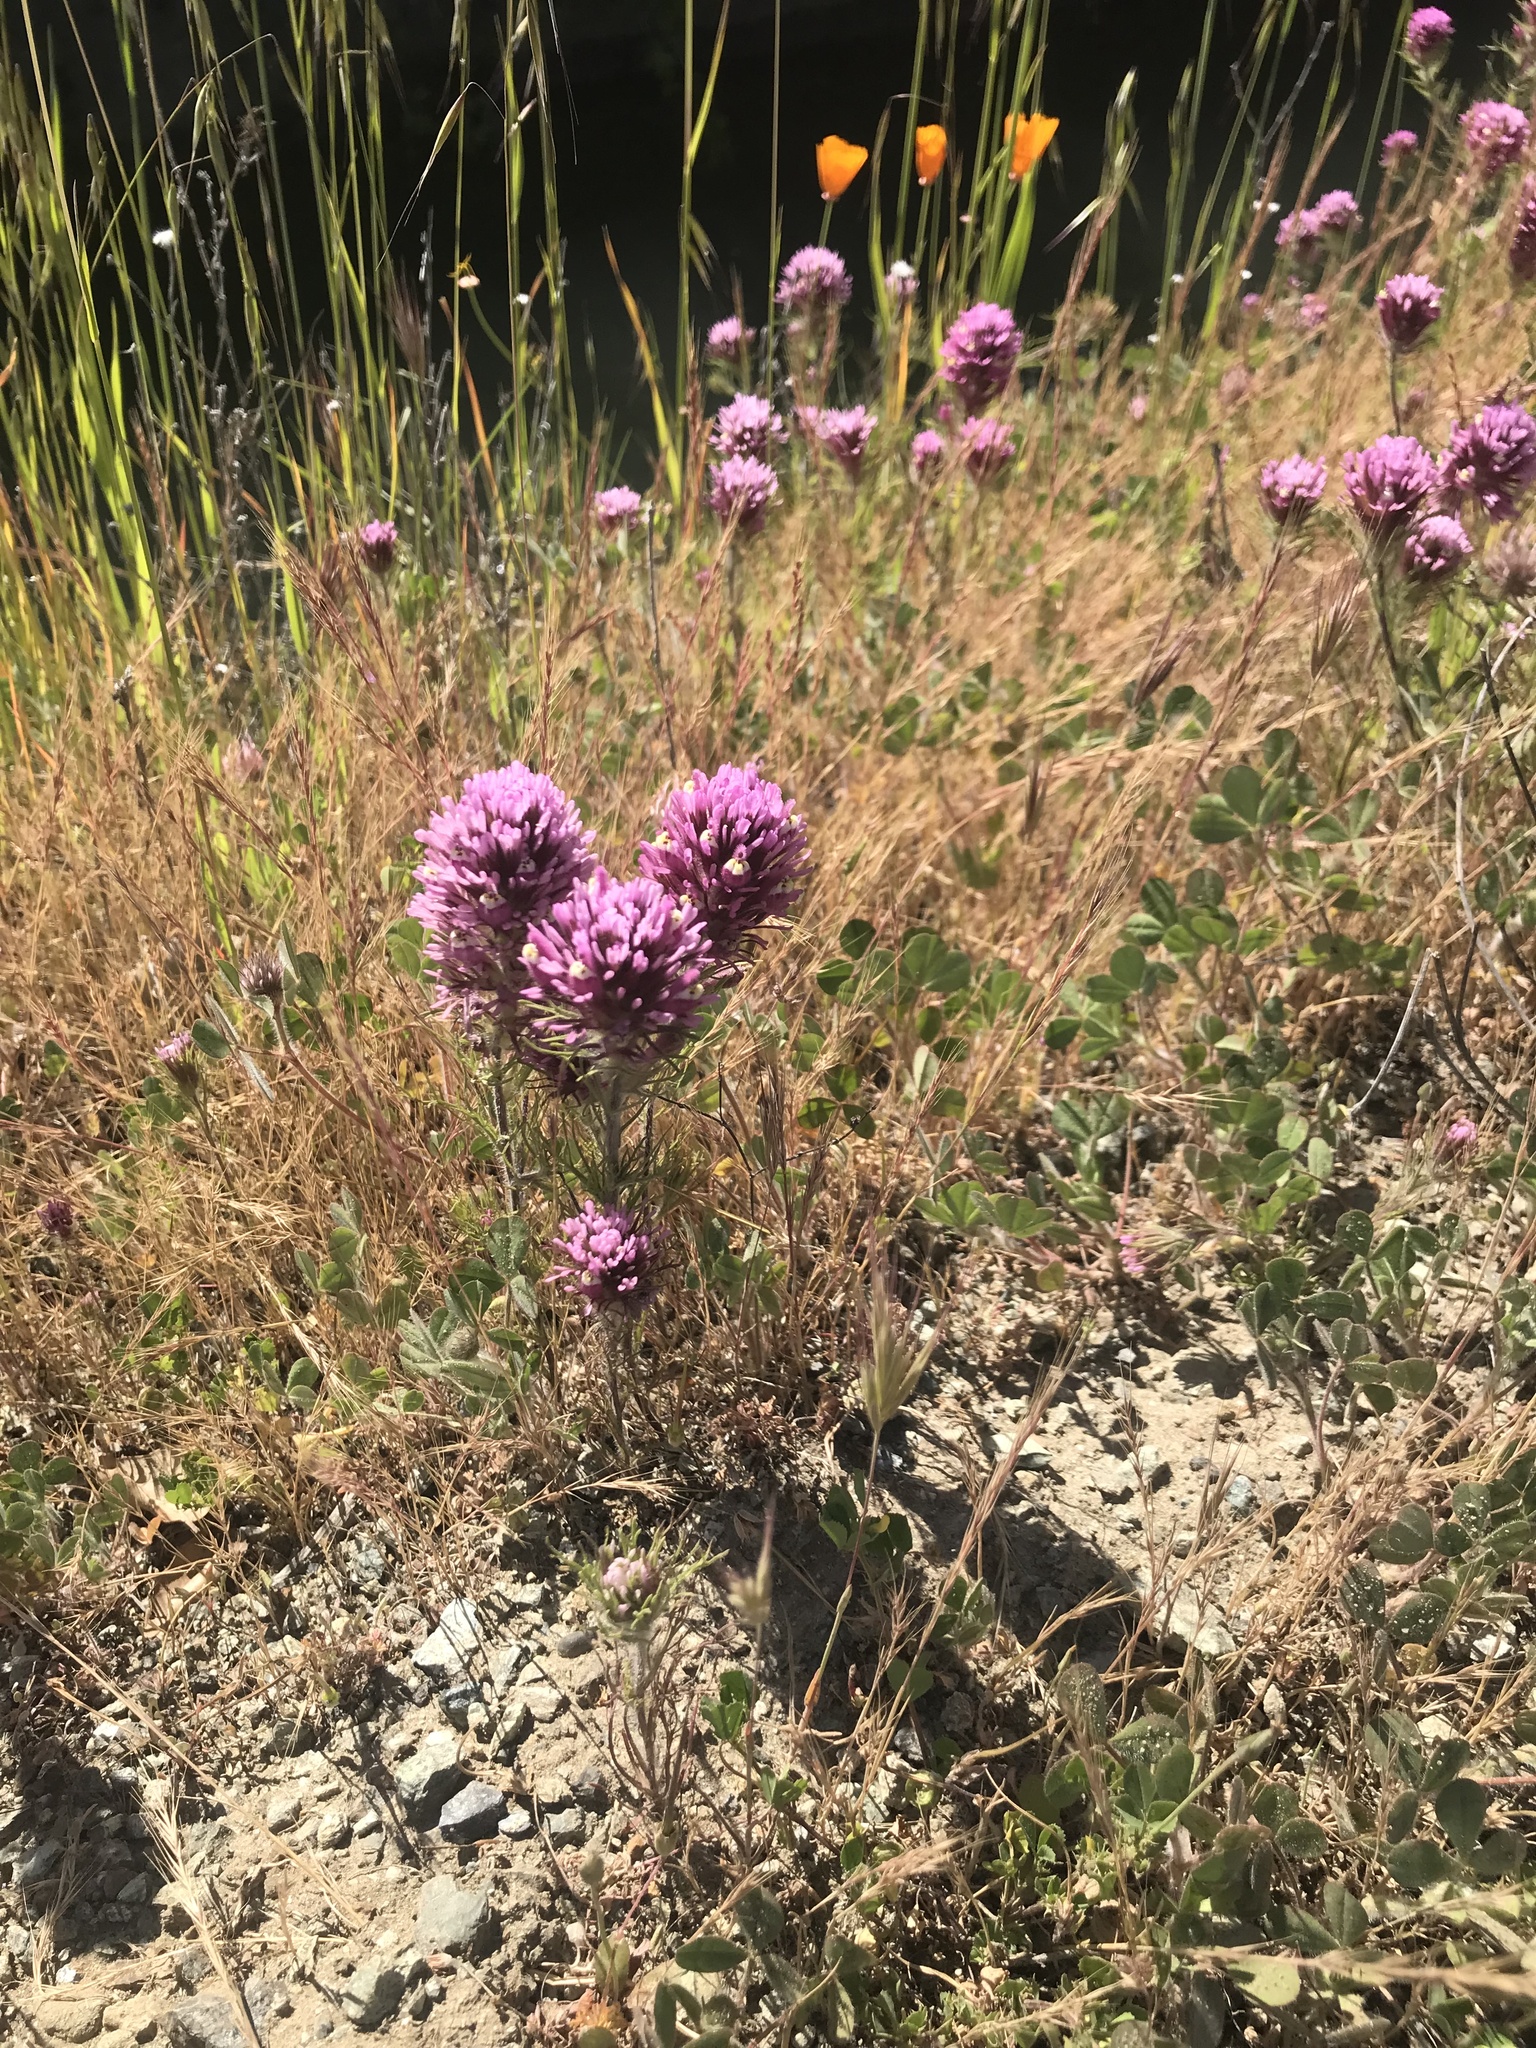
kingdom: Plantae
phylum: Tracheophyta
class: Magnoliopsida
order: Lamiales
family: Orobanchaceae
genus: Castilleja
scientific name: Castilleja exserta
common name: Purple owl-clover
